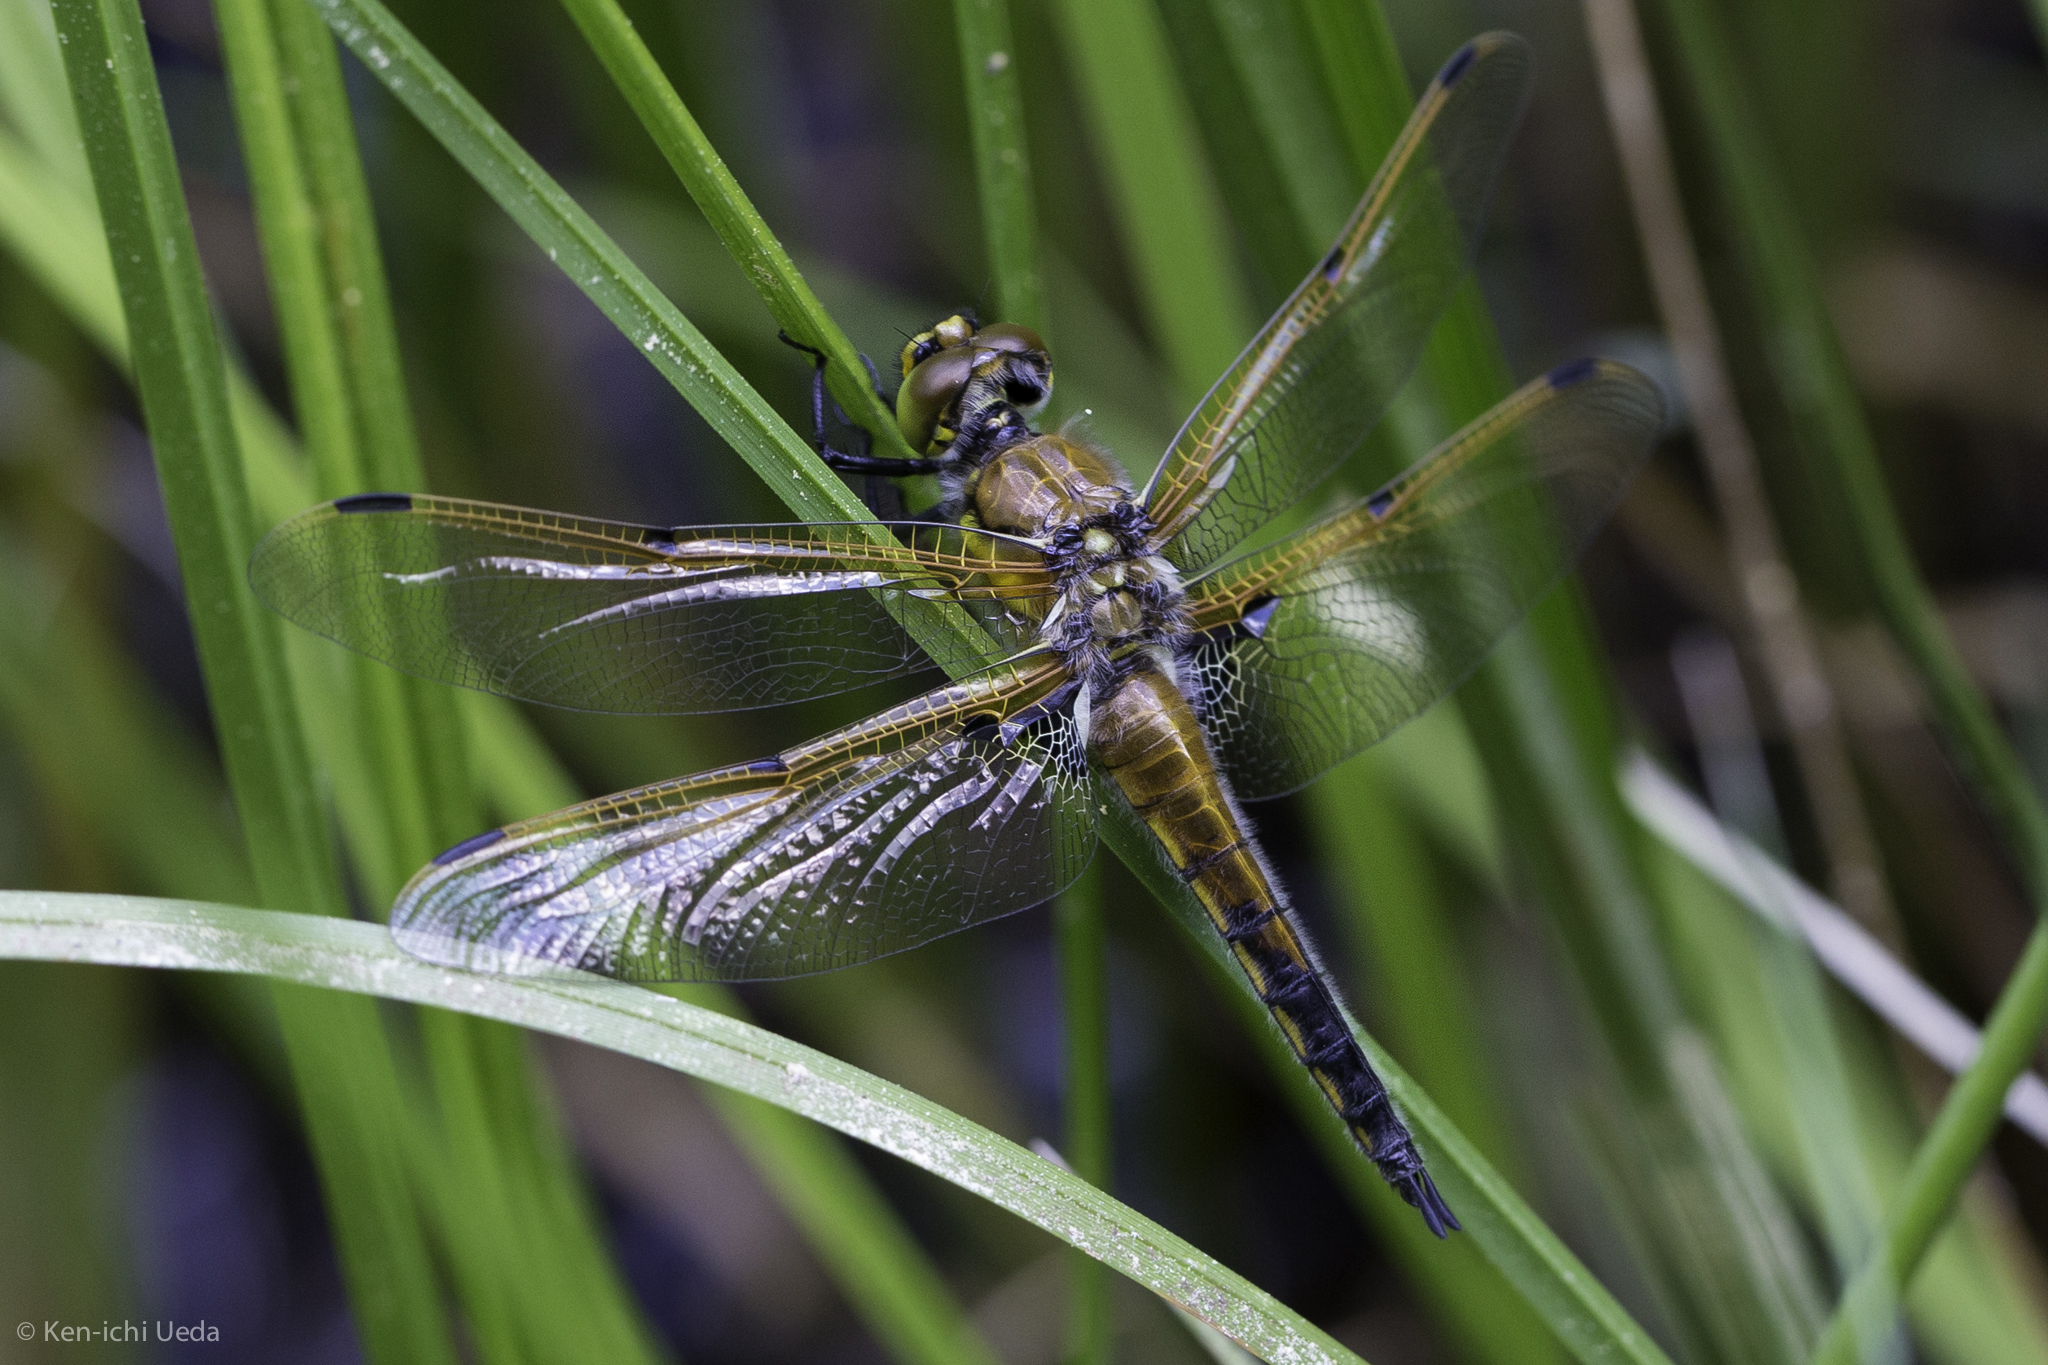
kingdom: Animalia
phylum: Arthropoda
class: Insecta
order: Odonata
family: Libellulidae
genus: Libellula
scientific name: Libellula quadrimaculata
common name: Four-spotted chaser
